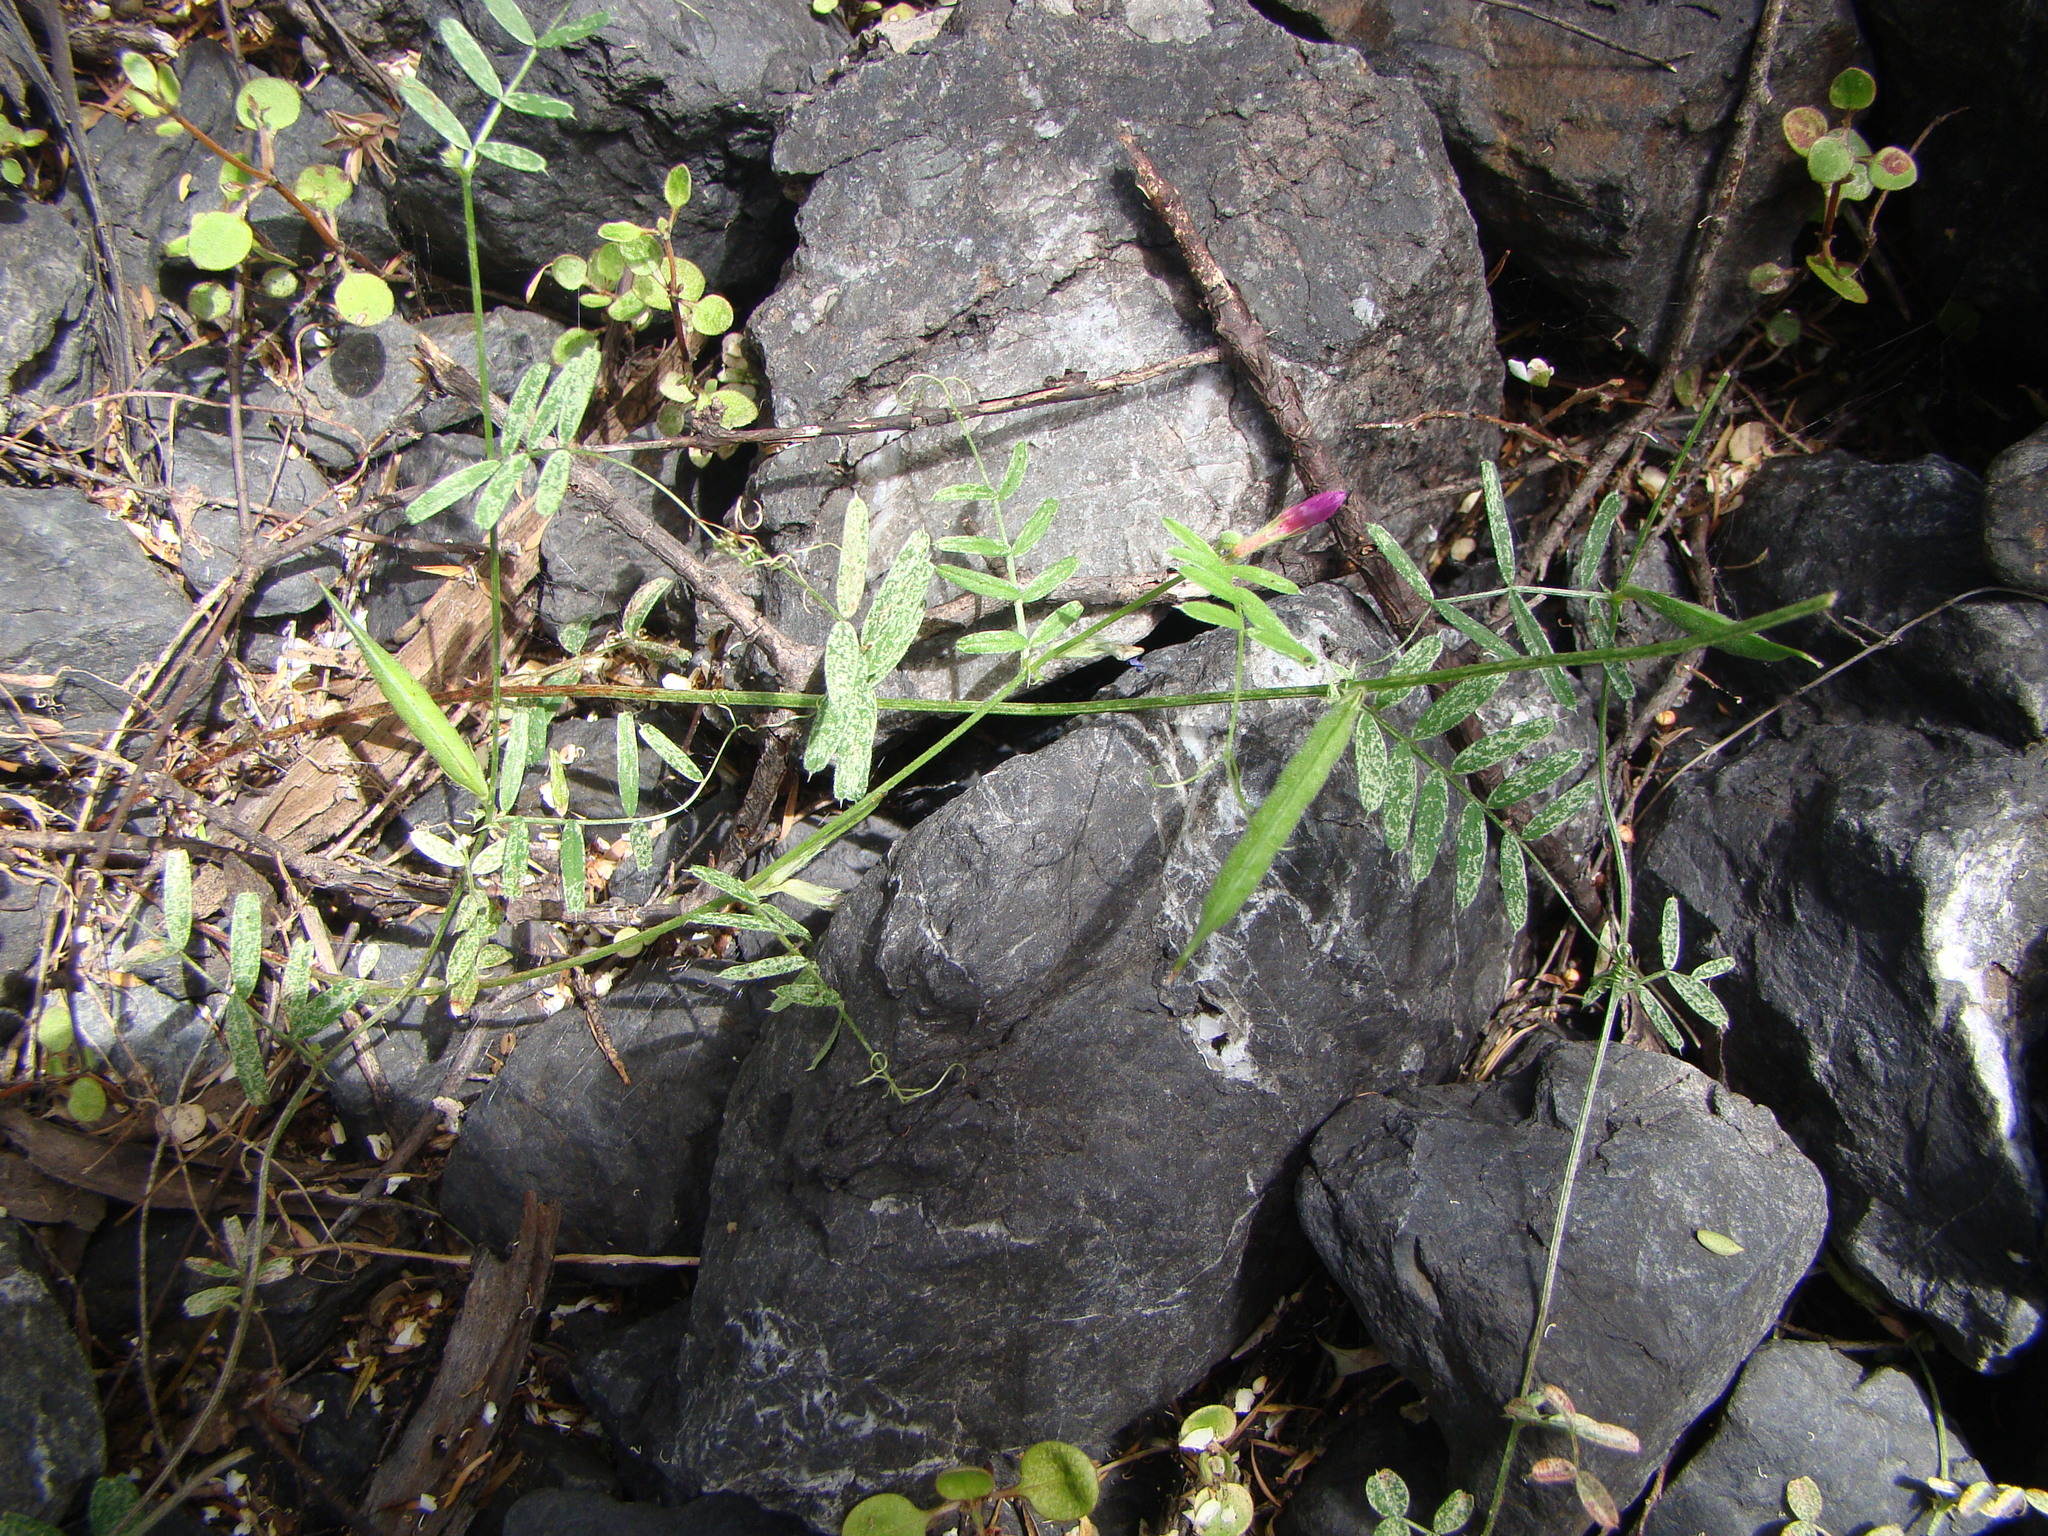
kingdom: Plantae
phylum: Tracheophyta
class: Magnoliopsida
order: Fabales
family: Fabaceae
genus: Vicia
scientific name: Vicia sativa
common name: Garden vetch
